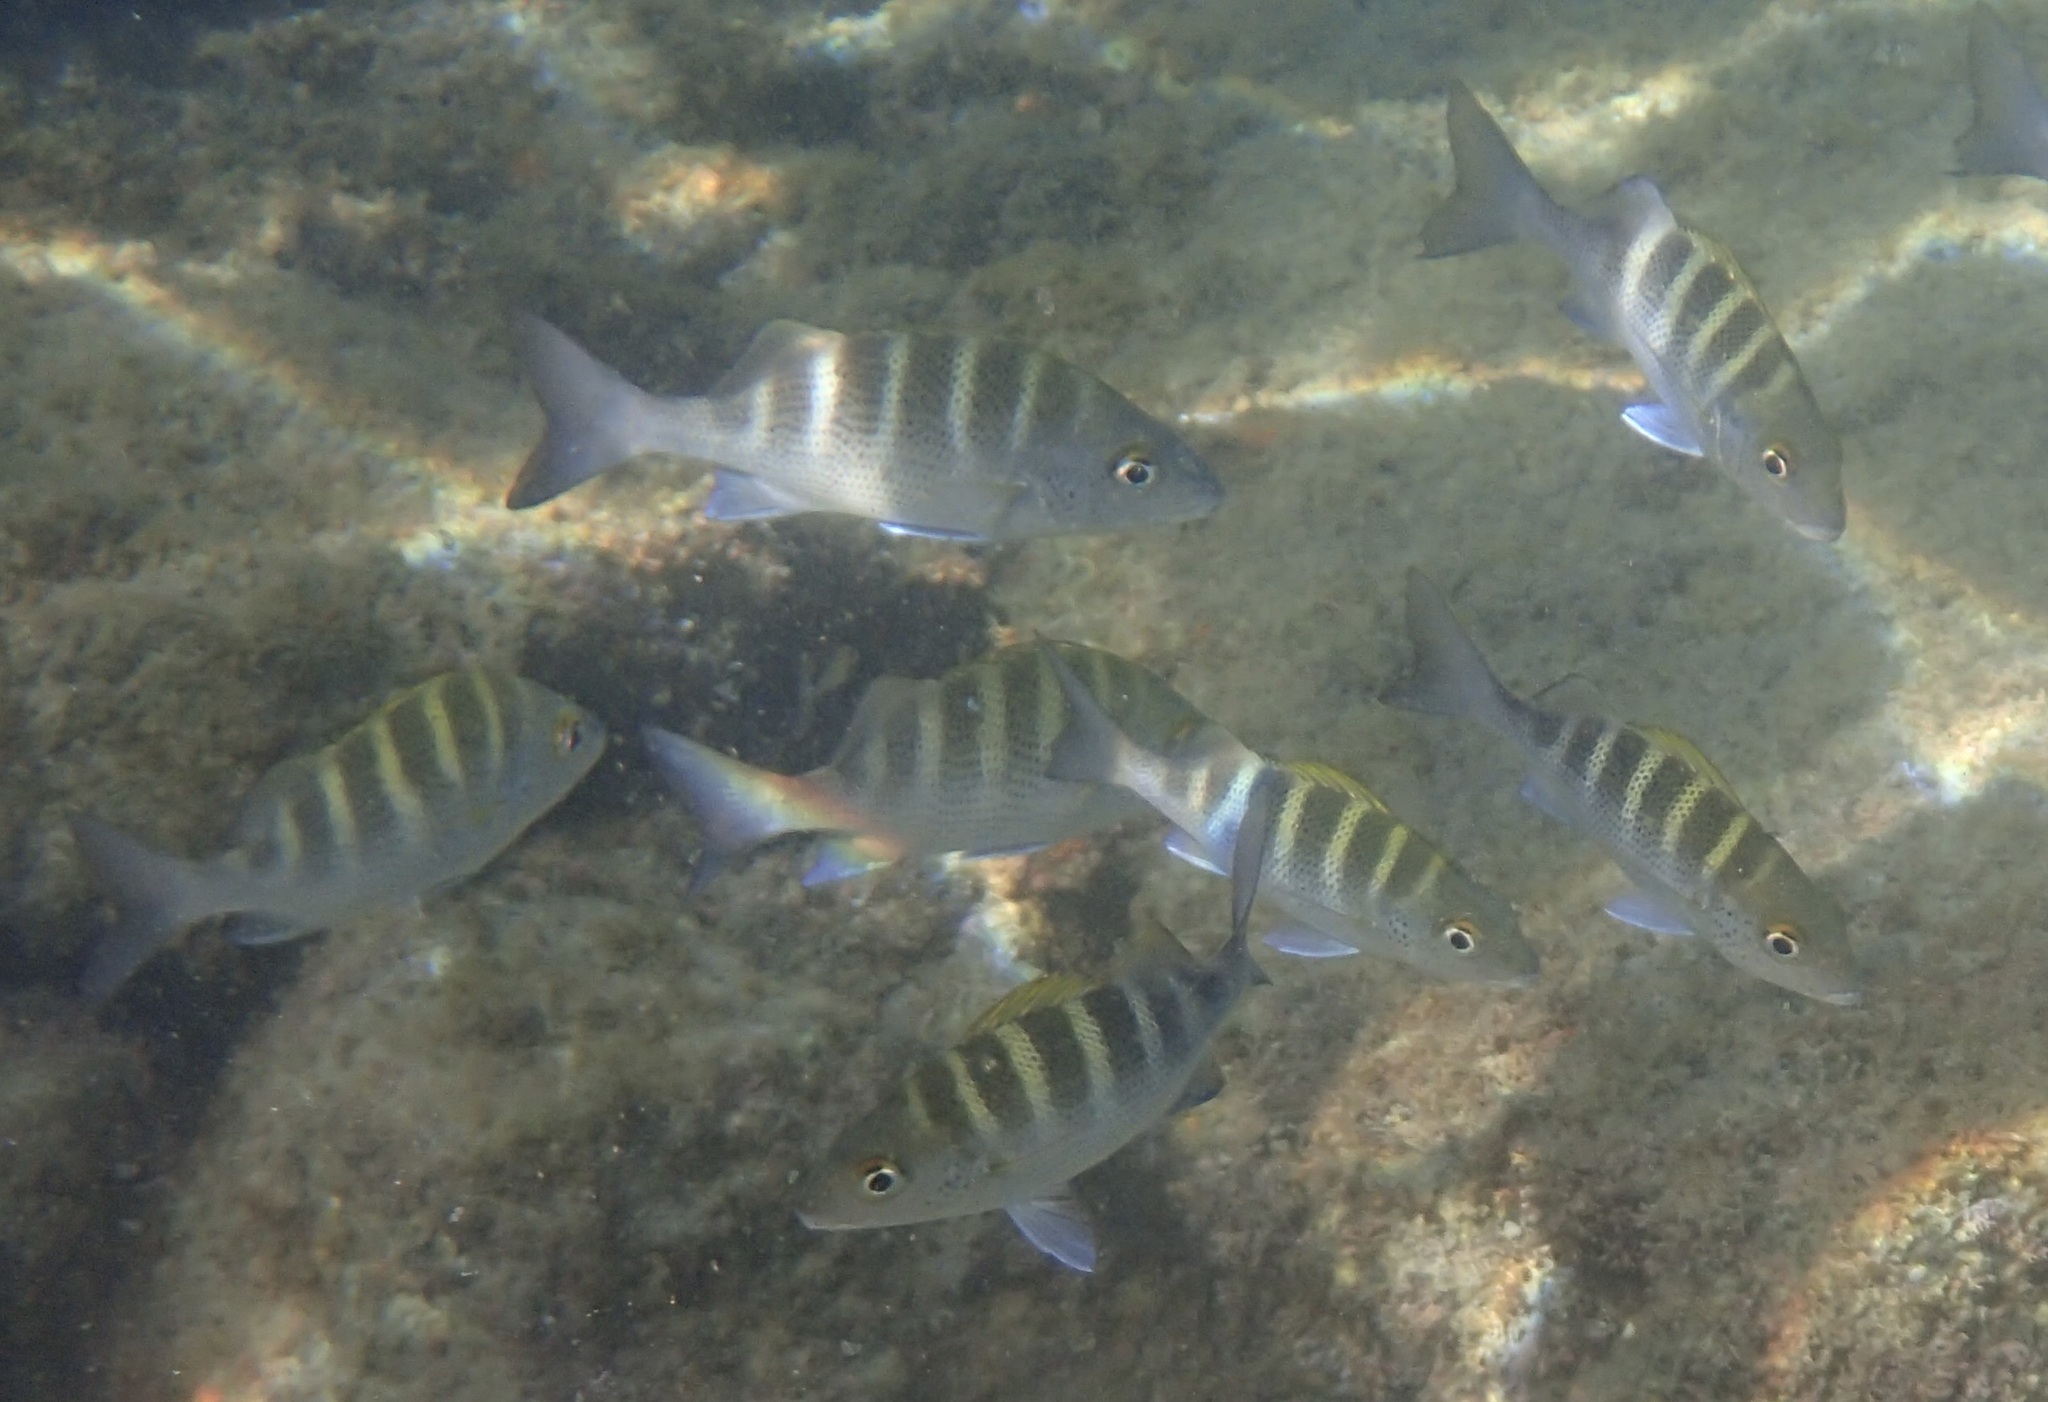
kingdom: Animalia
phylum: Chordata
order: Perciformes
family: Haemulidae
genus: Haemulon
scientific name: Haemulon sexfasciatum
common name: Graybar grunt
